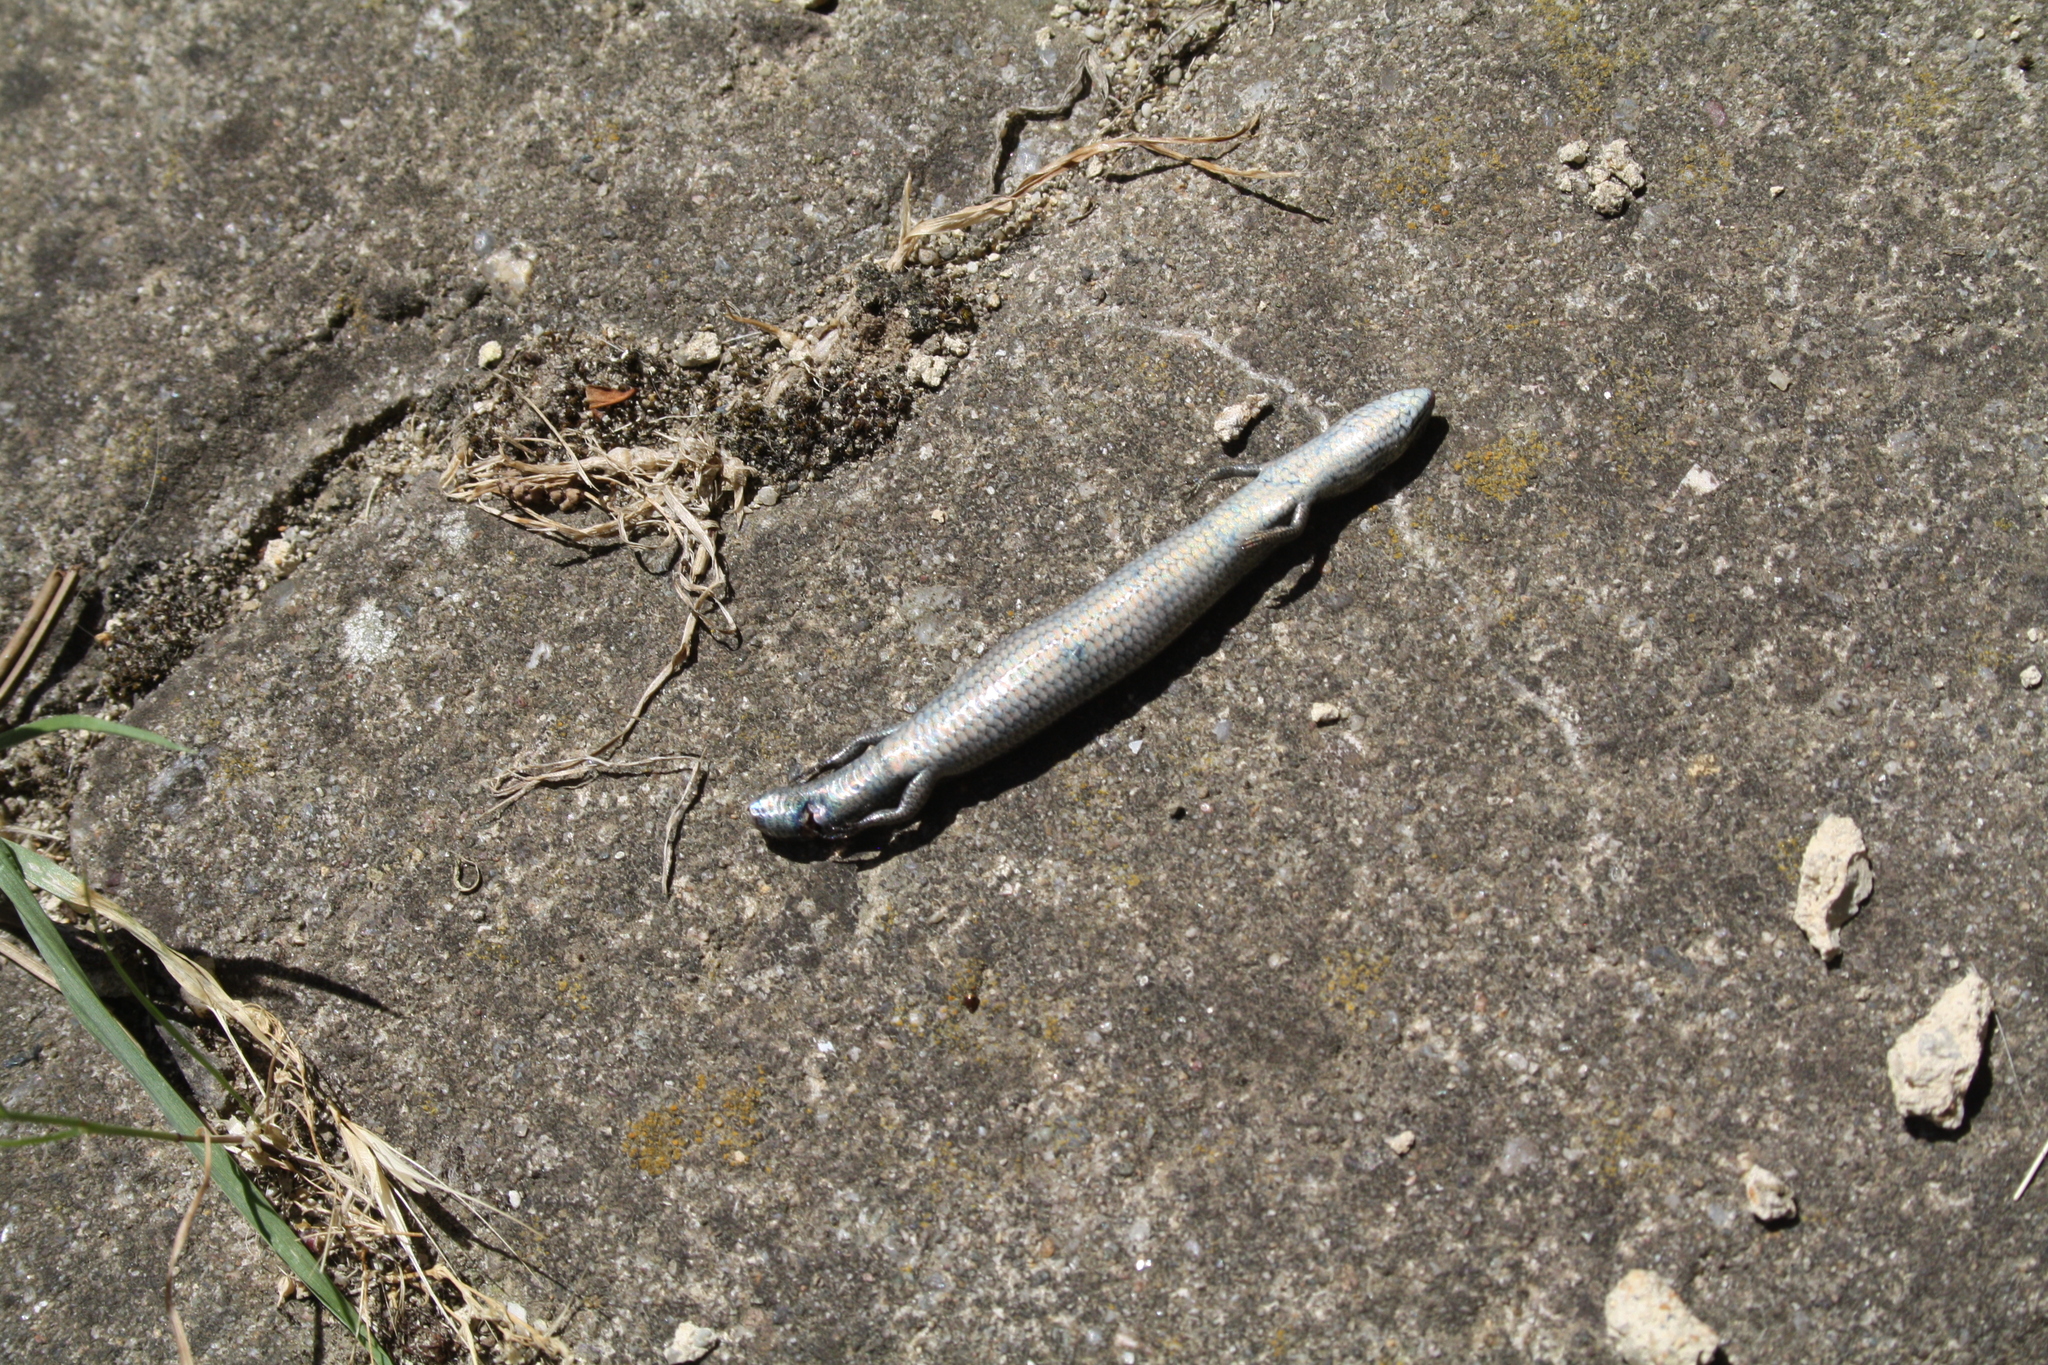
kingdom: Animalia
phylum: Chordata
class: Squamata
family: Scincidae
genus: Ablepharus
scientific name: Ablepharus kitaibelii
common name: Juniper skink
